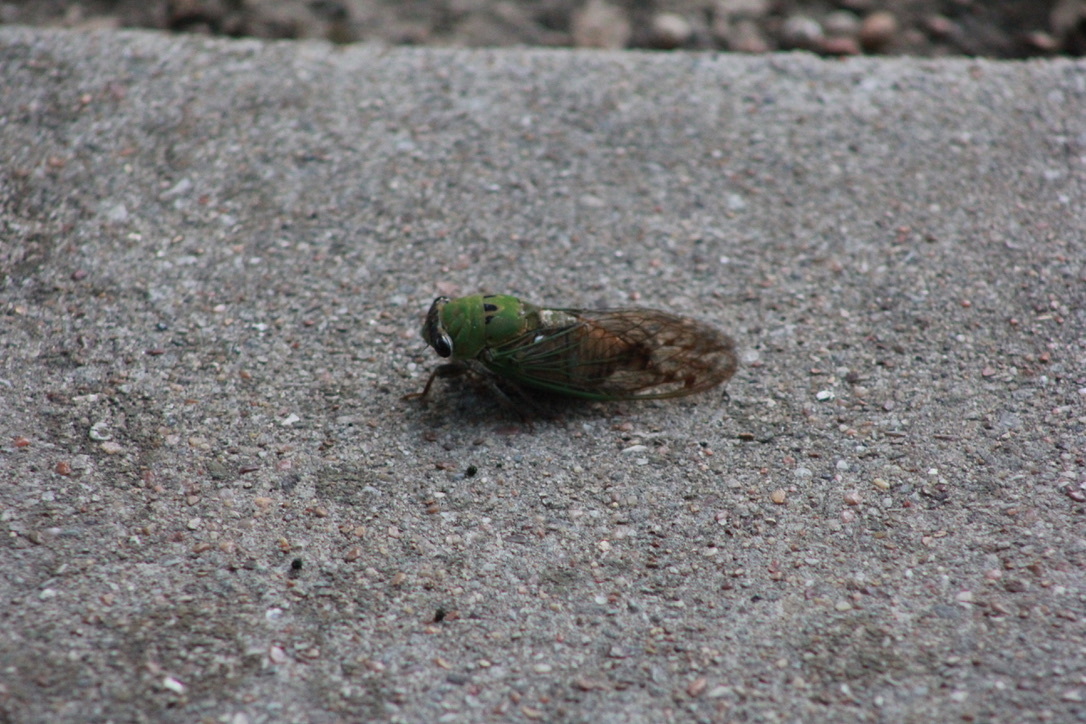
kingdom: Animalia
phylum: Arthropoda
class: Insecta
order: Hemiptera
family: Cicadidae
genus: Neotibicen
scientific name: Neotibicen superbus
